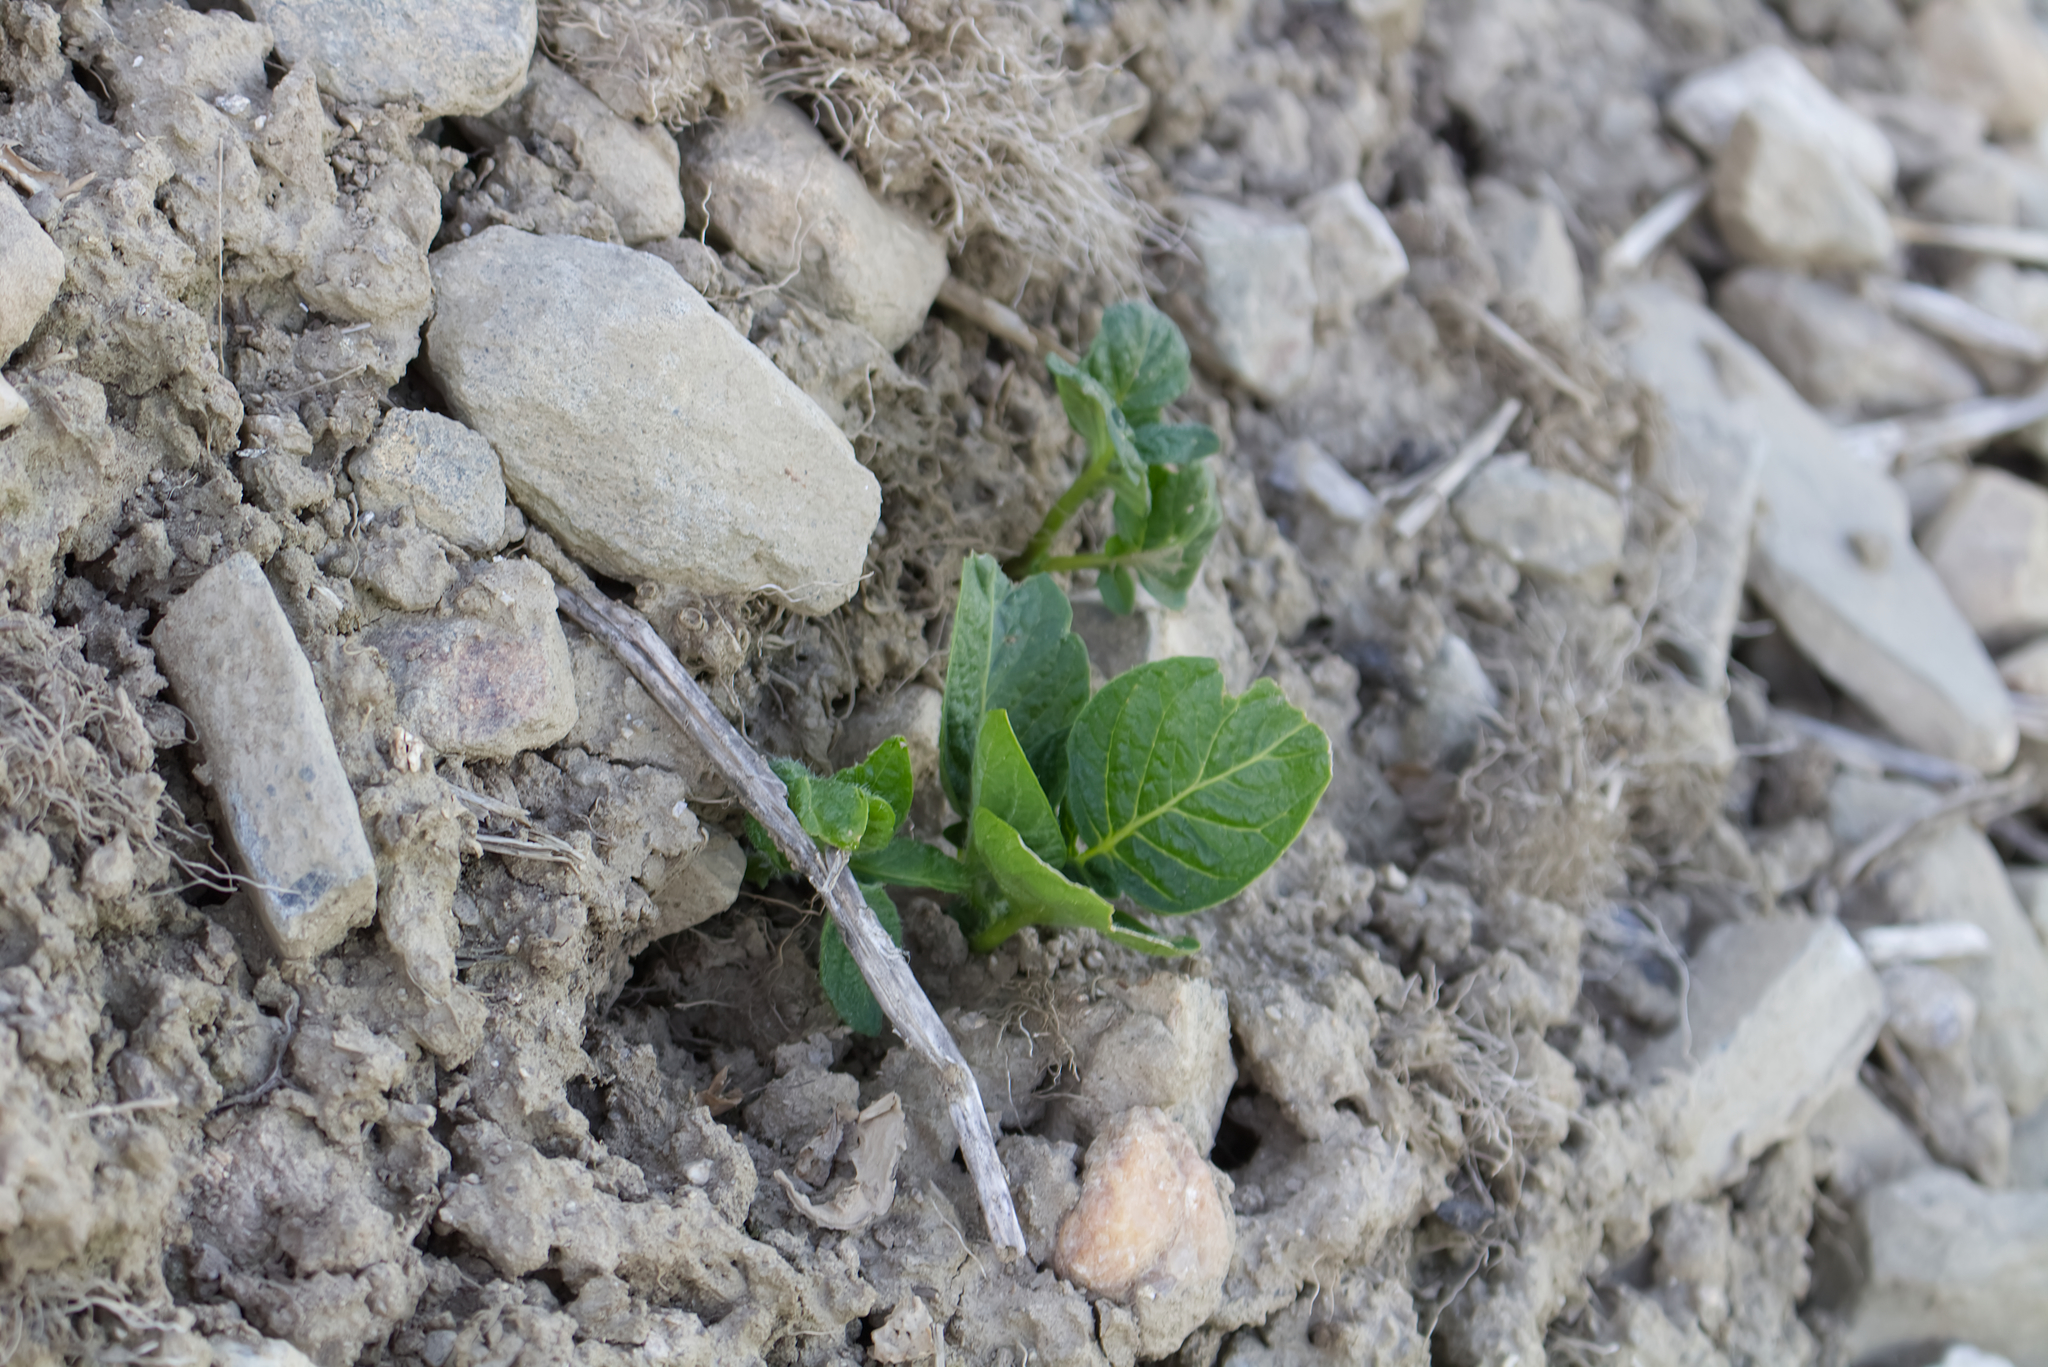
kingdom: Plantae
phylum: Tracheophyta
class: Magnoliopsida
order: Solanales
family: Solanaceae
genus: Solanum
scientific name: Solanum tuberosum
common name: Potato
